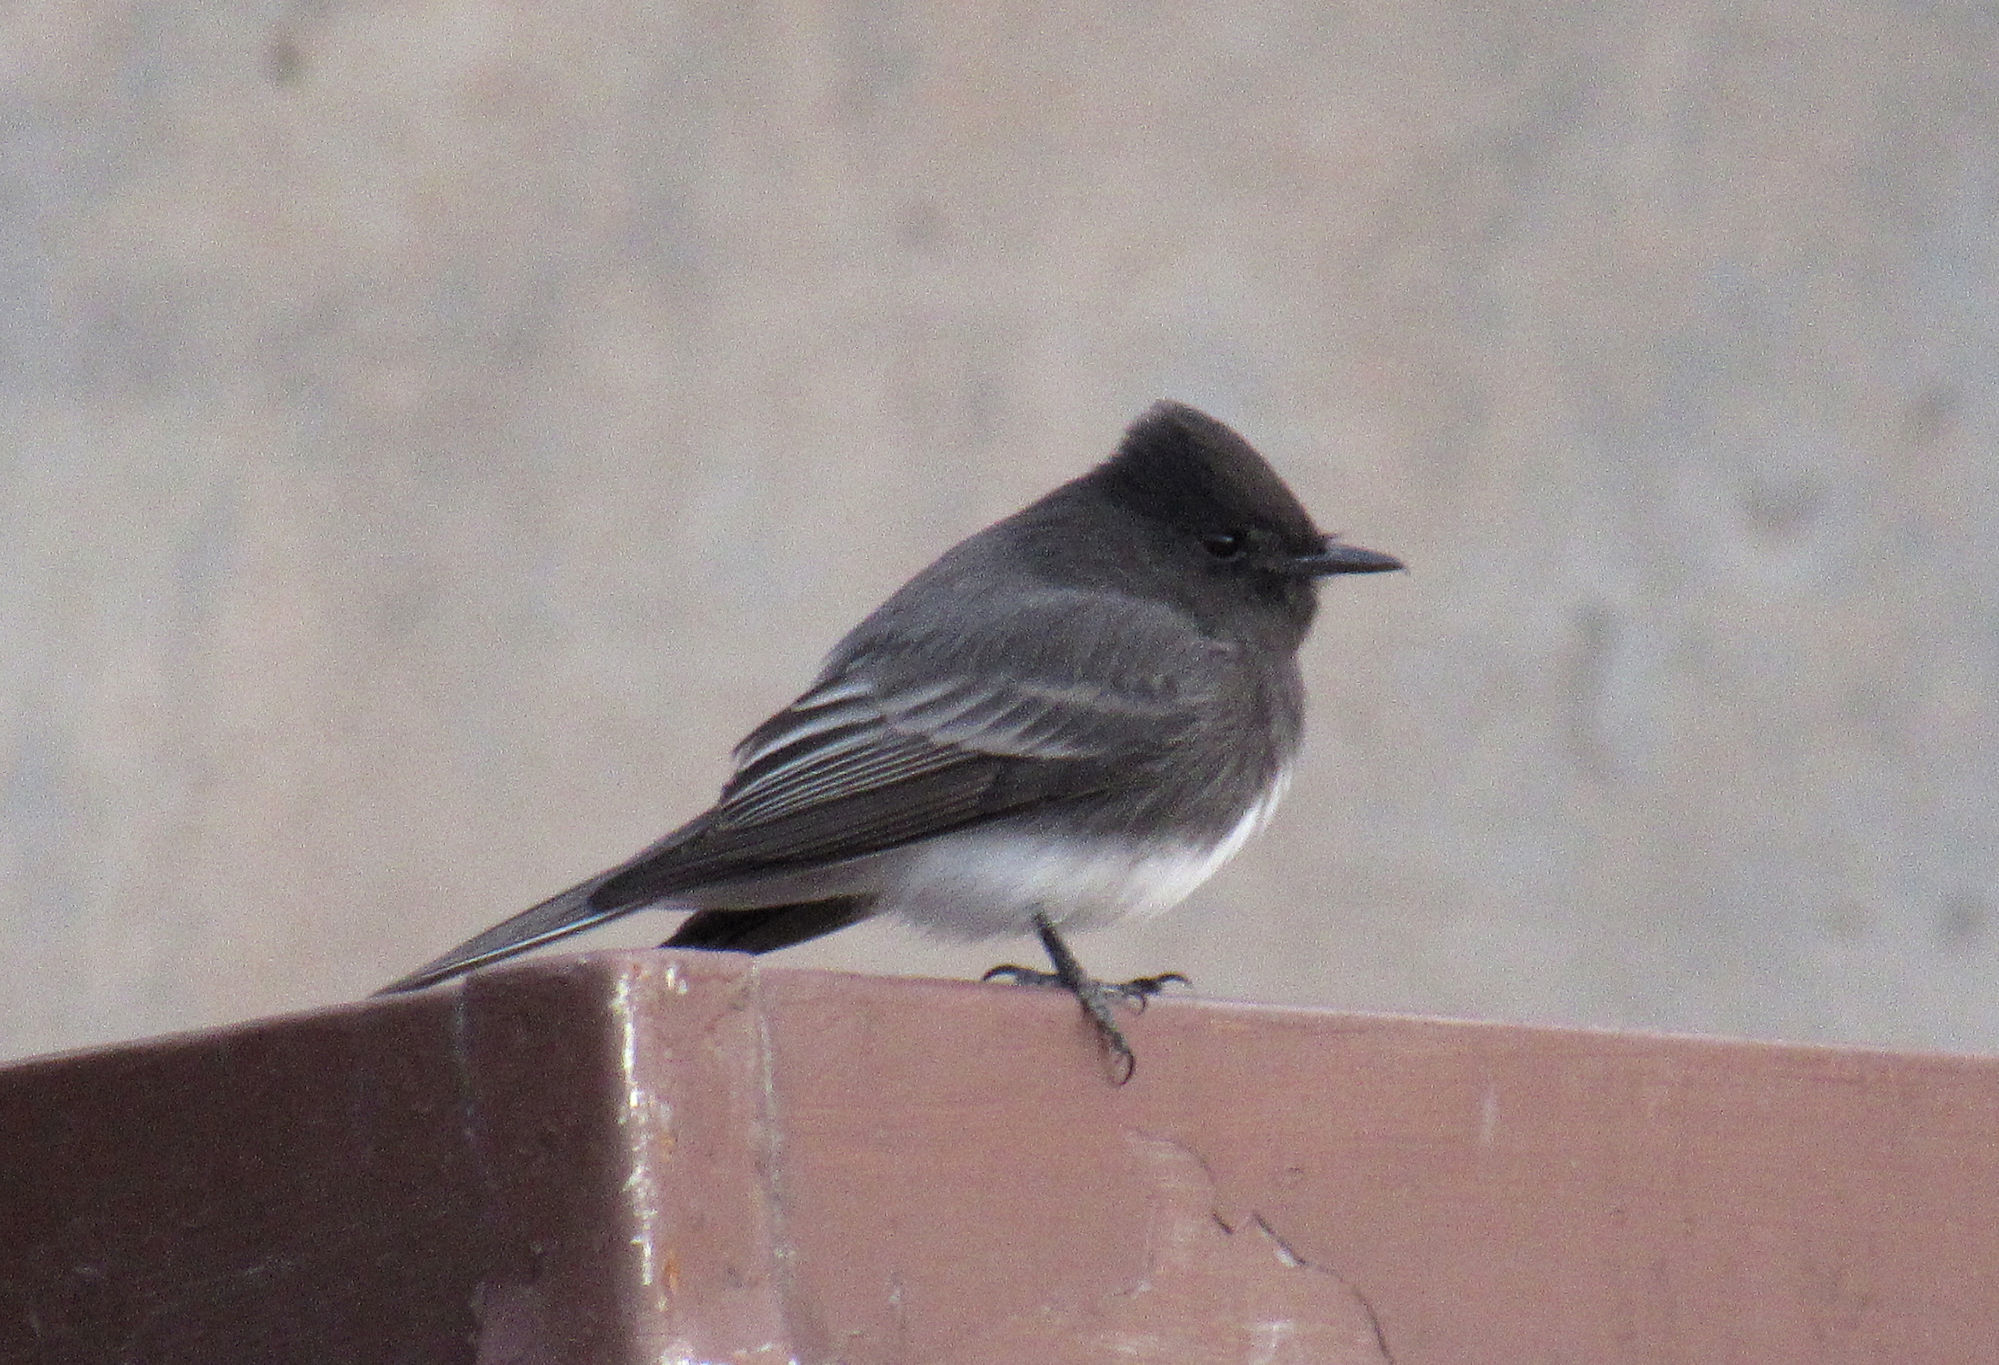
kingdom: Animalia
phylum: Chordata
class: Aves
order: Passeriformes
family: Tyrannidae
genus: Sayornis
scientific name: Sayornis nigricans
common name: Black phoebe
